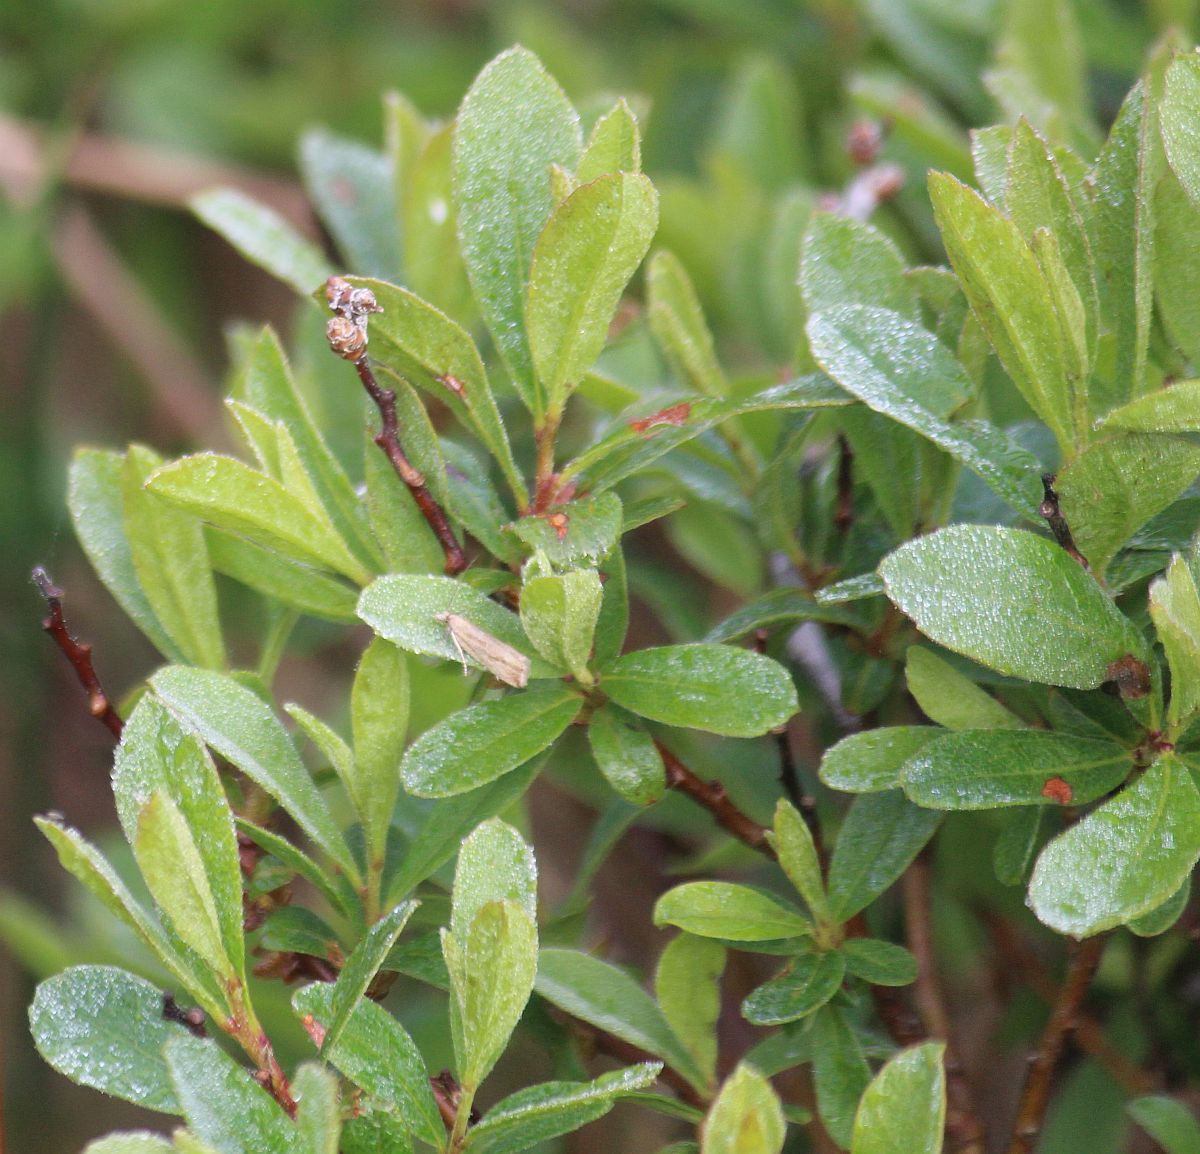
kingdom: Plantae
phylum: Tracheophyta
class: Magnoliopsida
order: Fagales
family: Myricaceae
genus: Myrica
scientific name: Myrica gale
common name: Sweet gale
